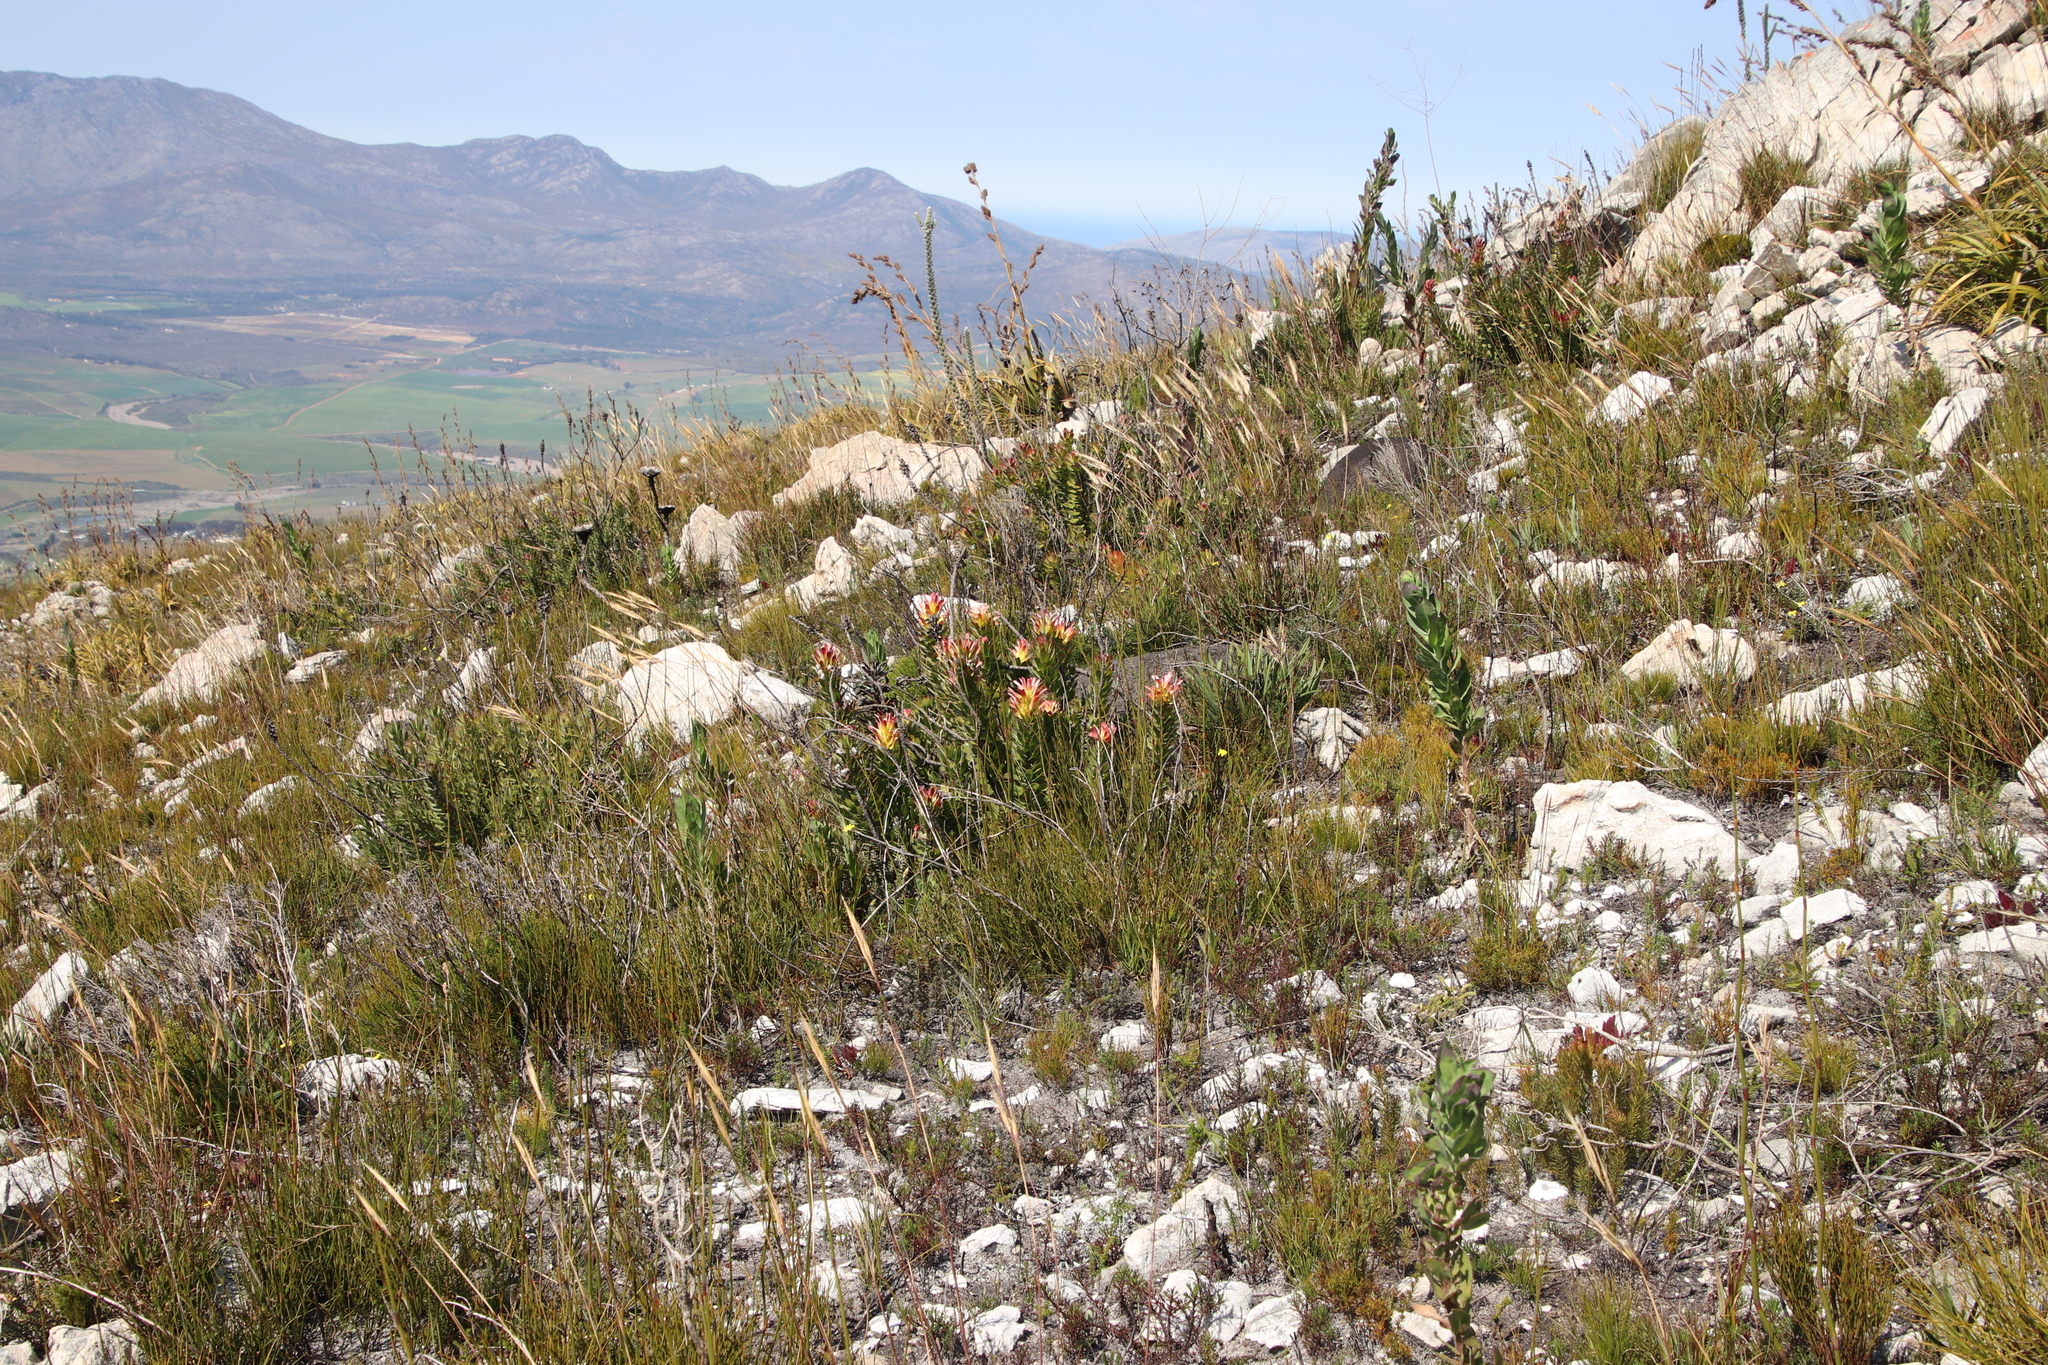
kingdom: Plantae
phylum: Tracheophyta
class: Magnoliopsida
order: Proteales
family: Proteaceae
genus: Mimetes
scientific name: Mimetes cucullatus
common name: Common pagoda
